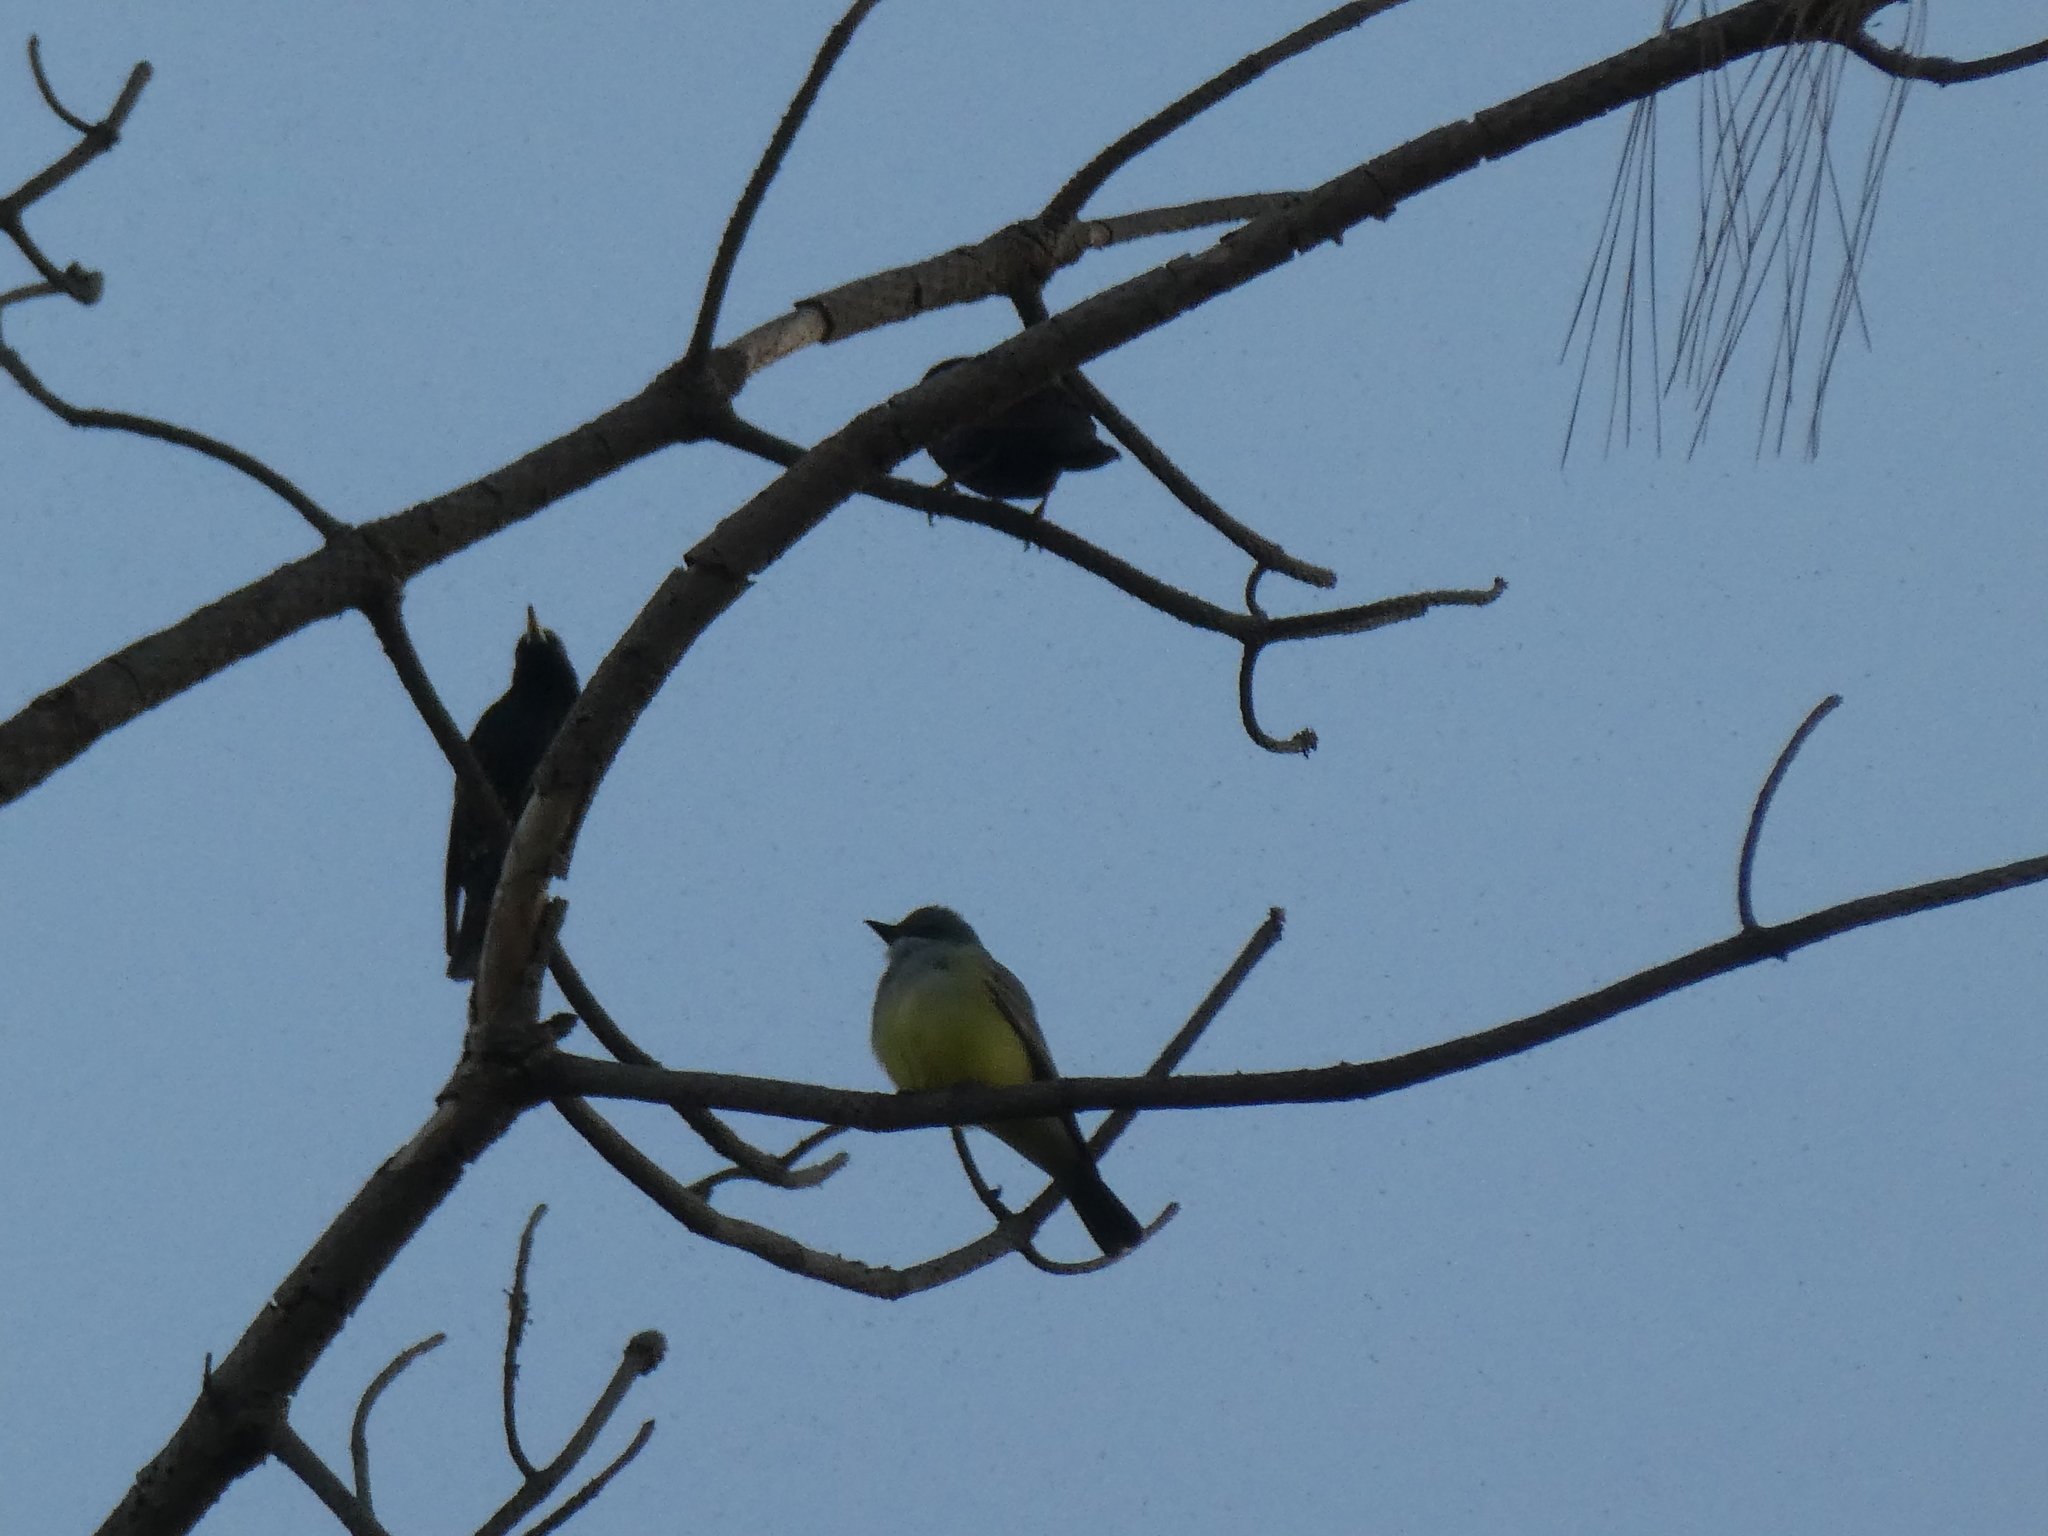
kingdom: Animalia
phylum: Chordata
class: Aves
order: Passeriformes
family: Tyrannidae
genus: Tyrannus
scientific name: Tyrannus vociferans
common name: Cassin's kingbird
